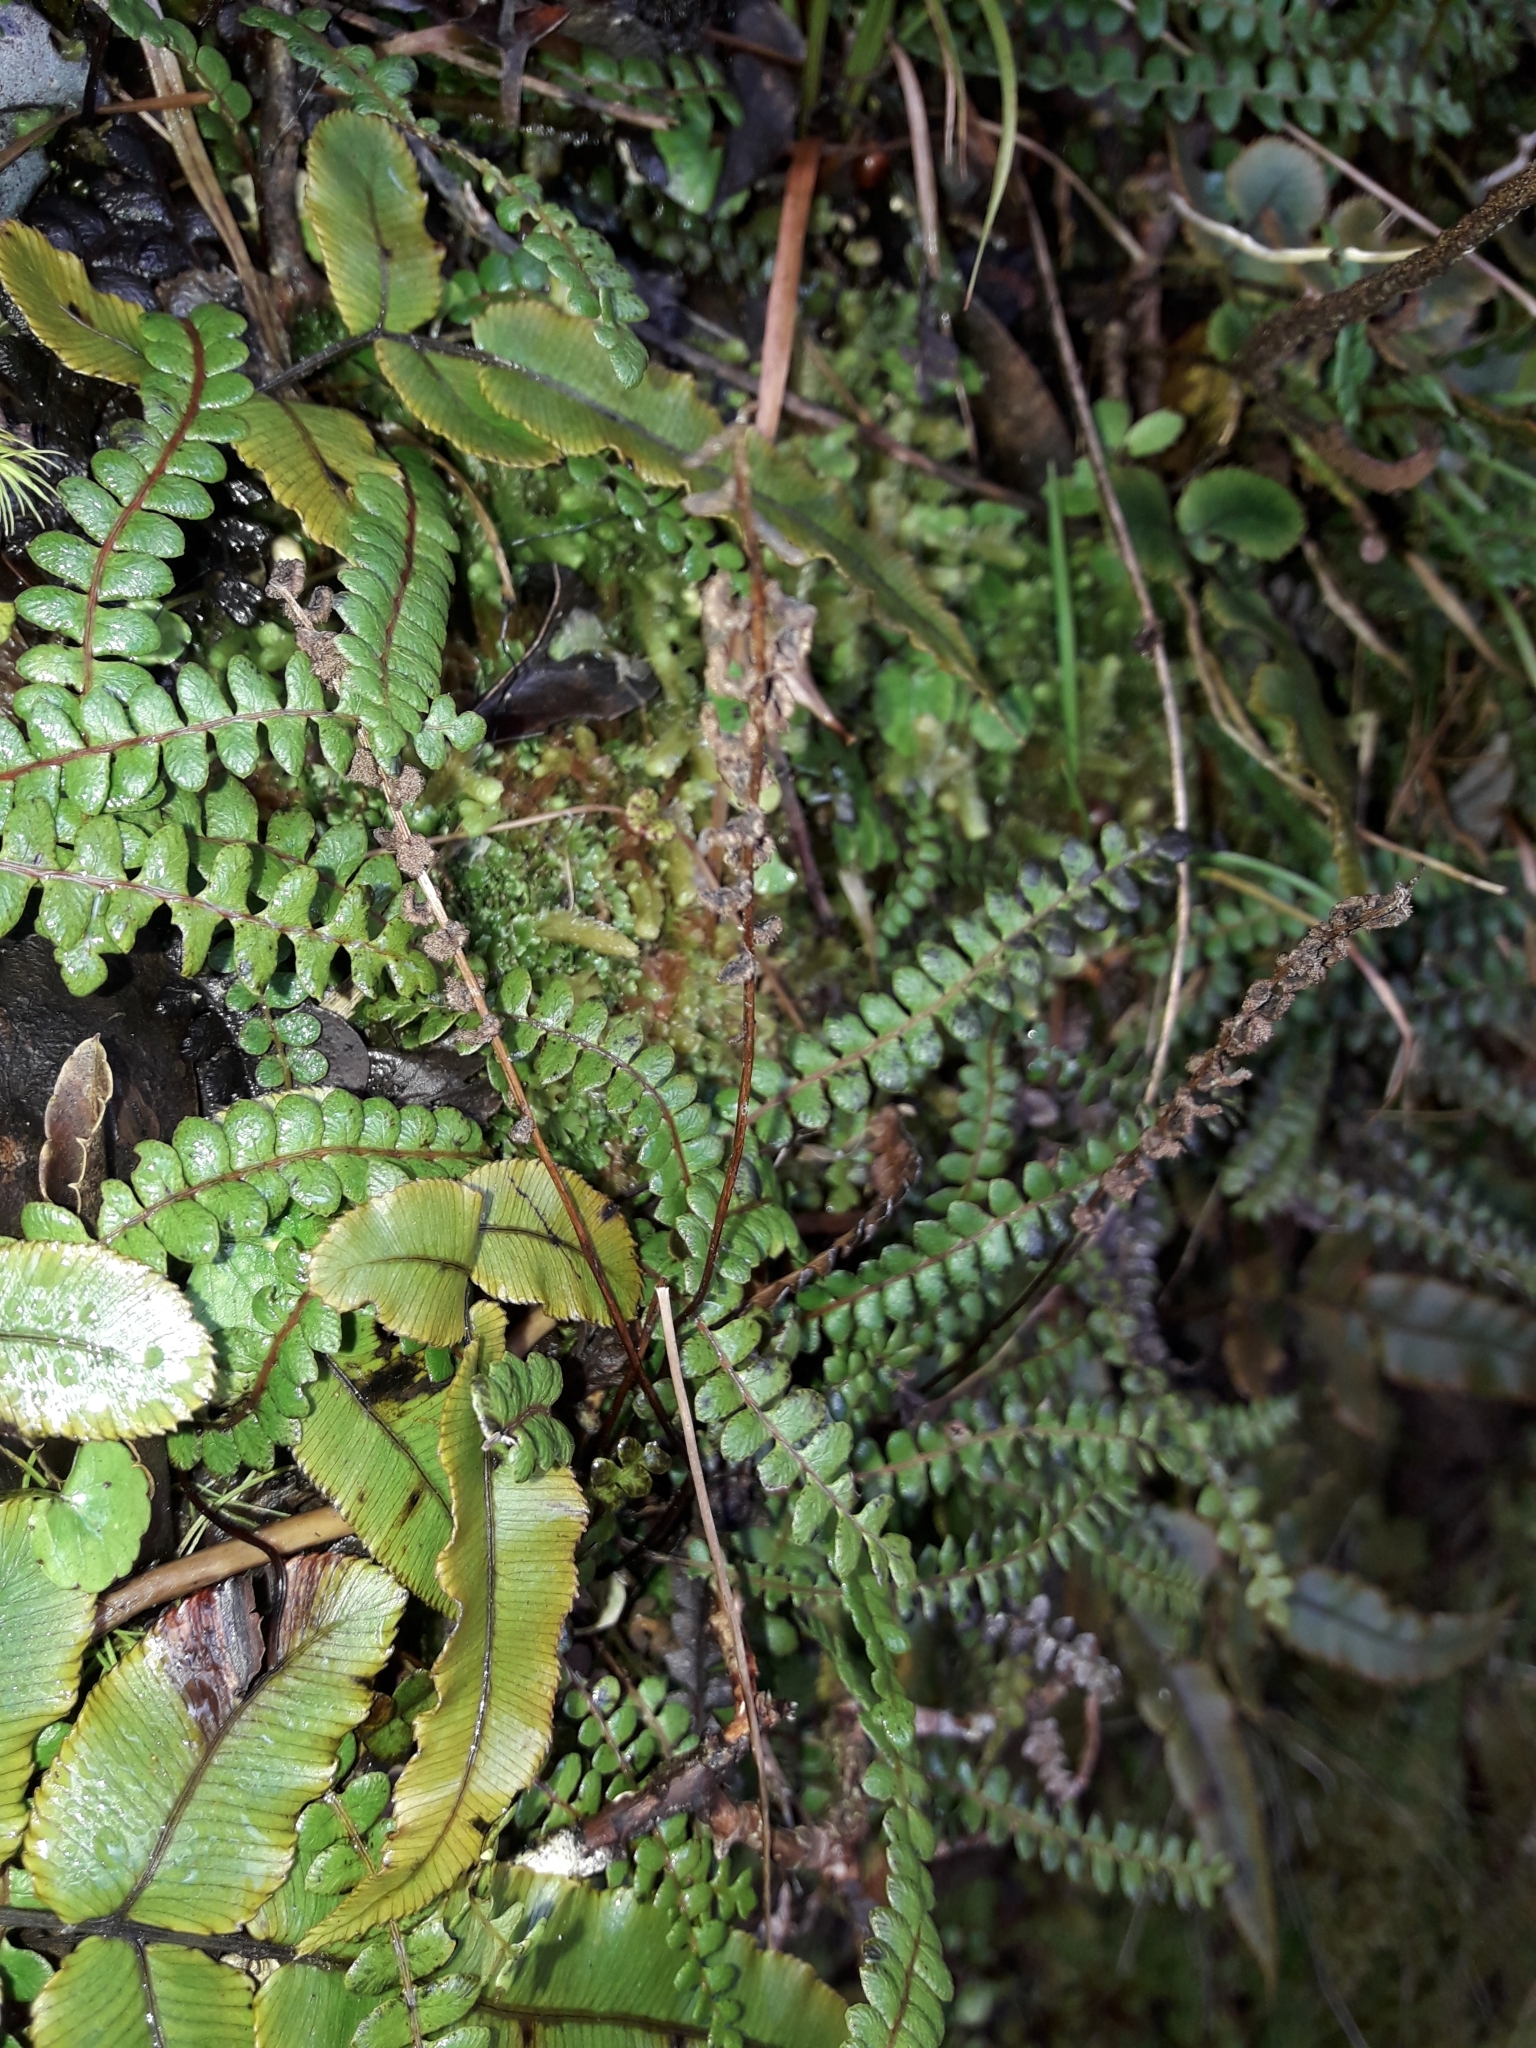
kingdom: Plantae
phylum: Tracheophyta
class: Polypodiopsida
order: Polypodiales
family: Blechnaceae
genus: Austroblechnum
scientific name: Austroblechnum penna-marina
